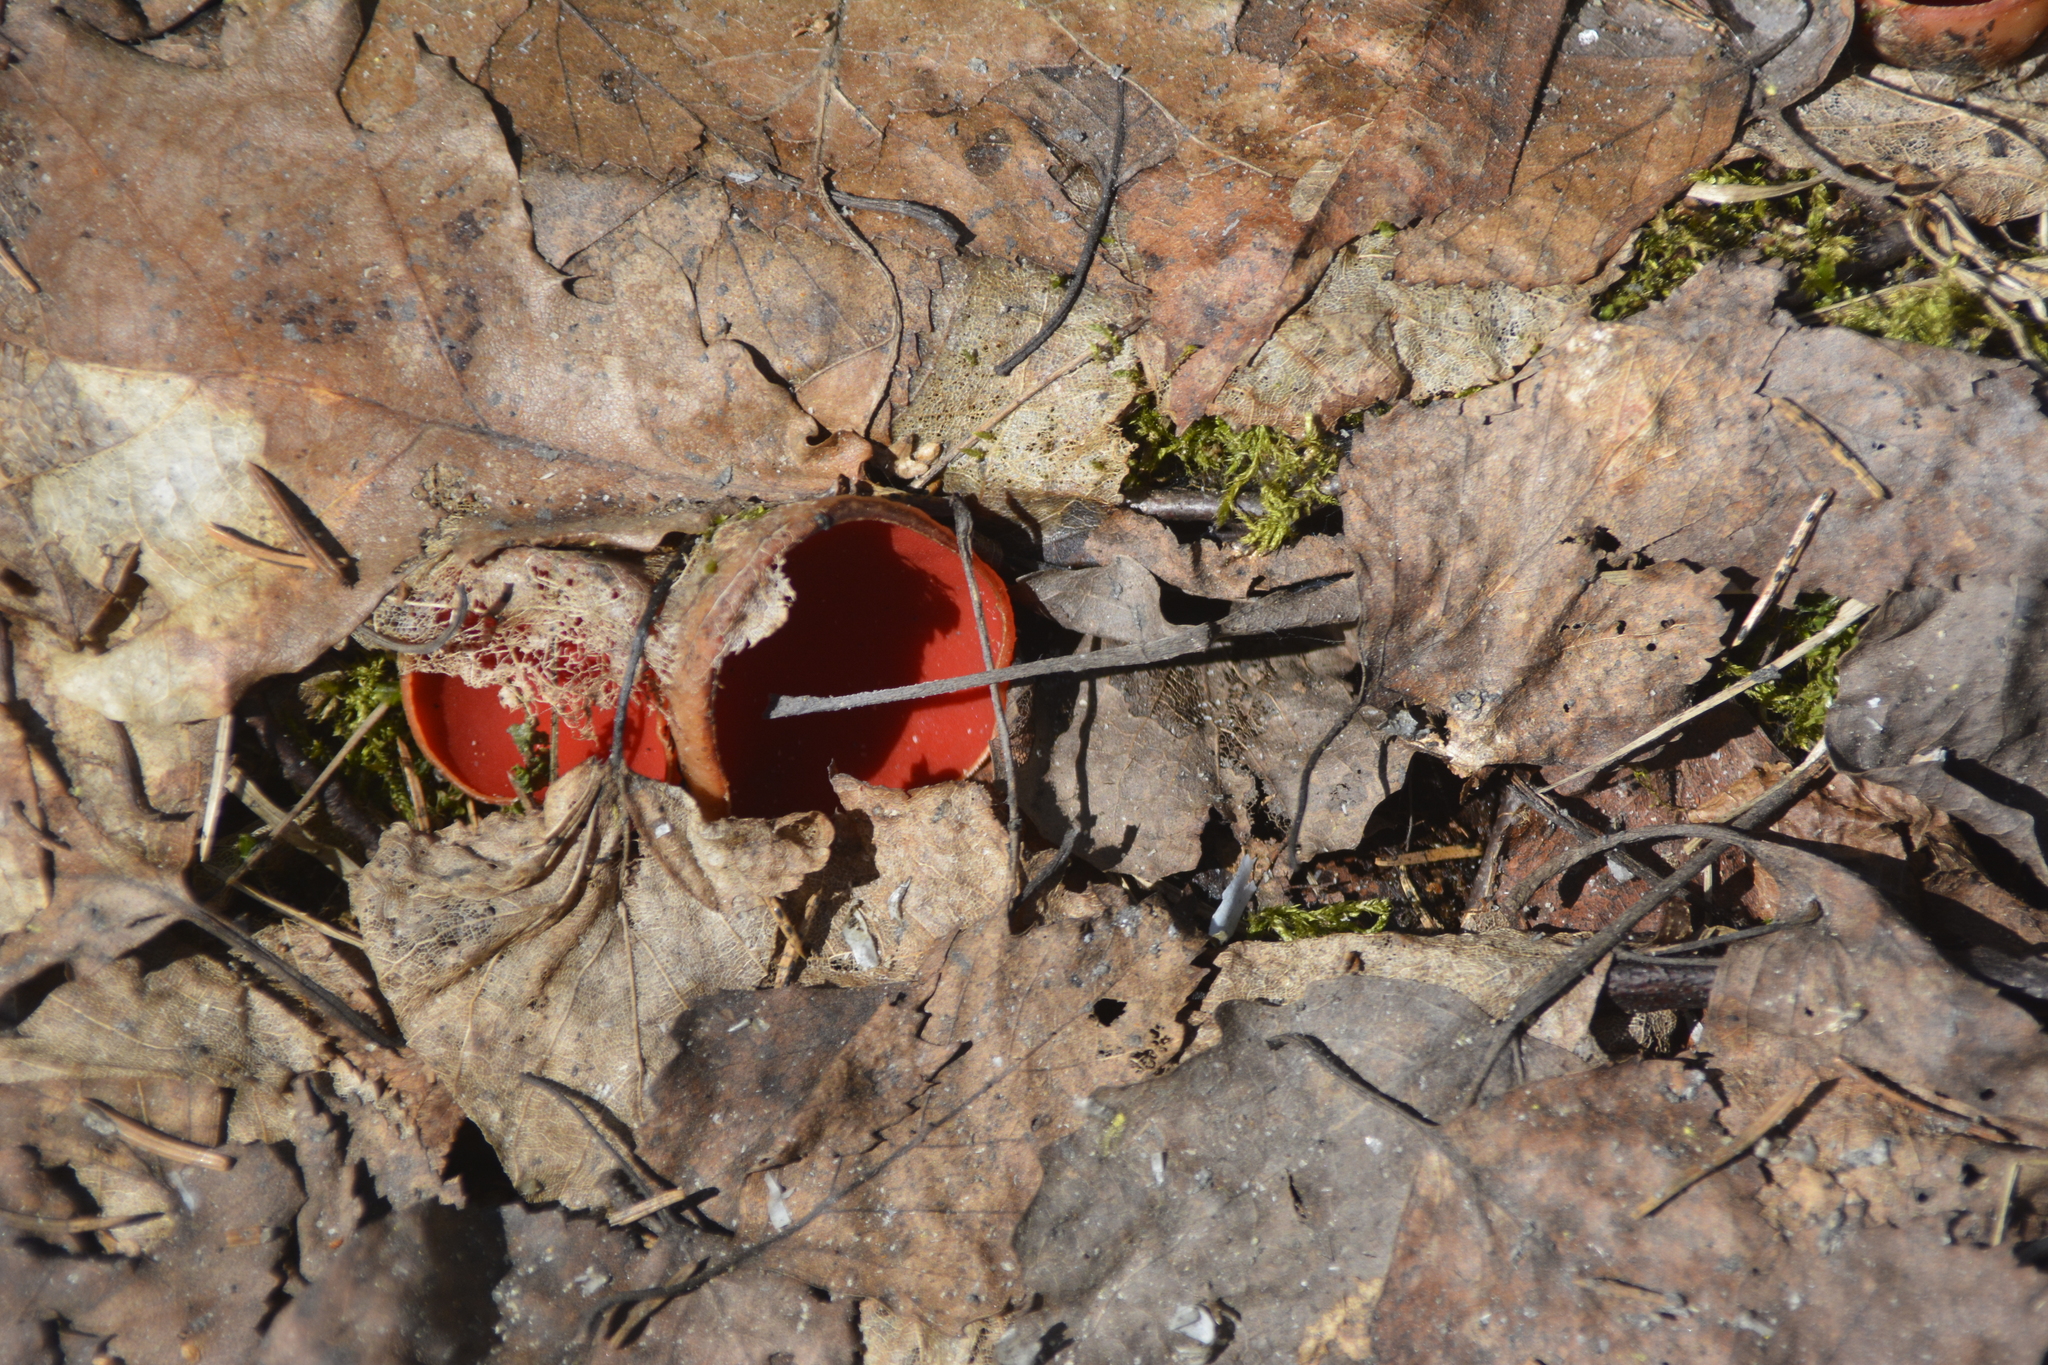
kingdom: Fungi
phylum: Ascomycota
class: Pezizomycetes
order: Pezizales
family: Sarcoscyphaceae
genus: Sarcoscypha
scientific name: Sarcoscypha austriaca
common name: Scarlet elfcup
